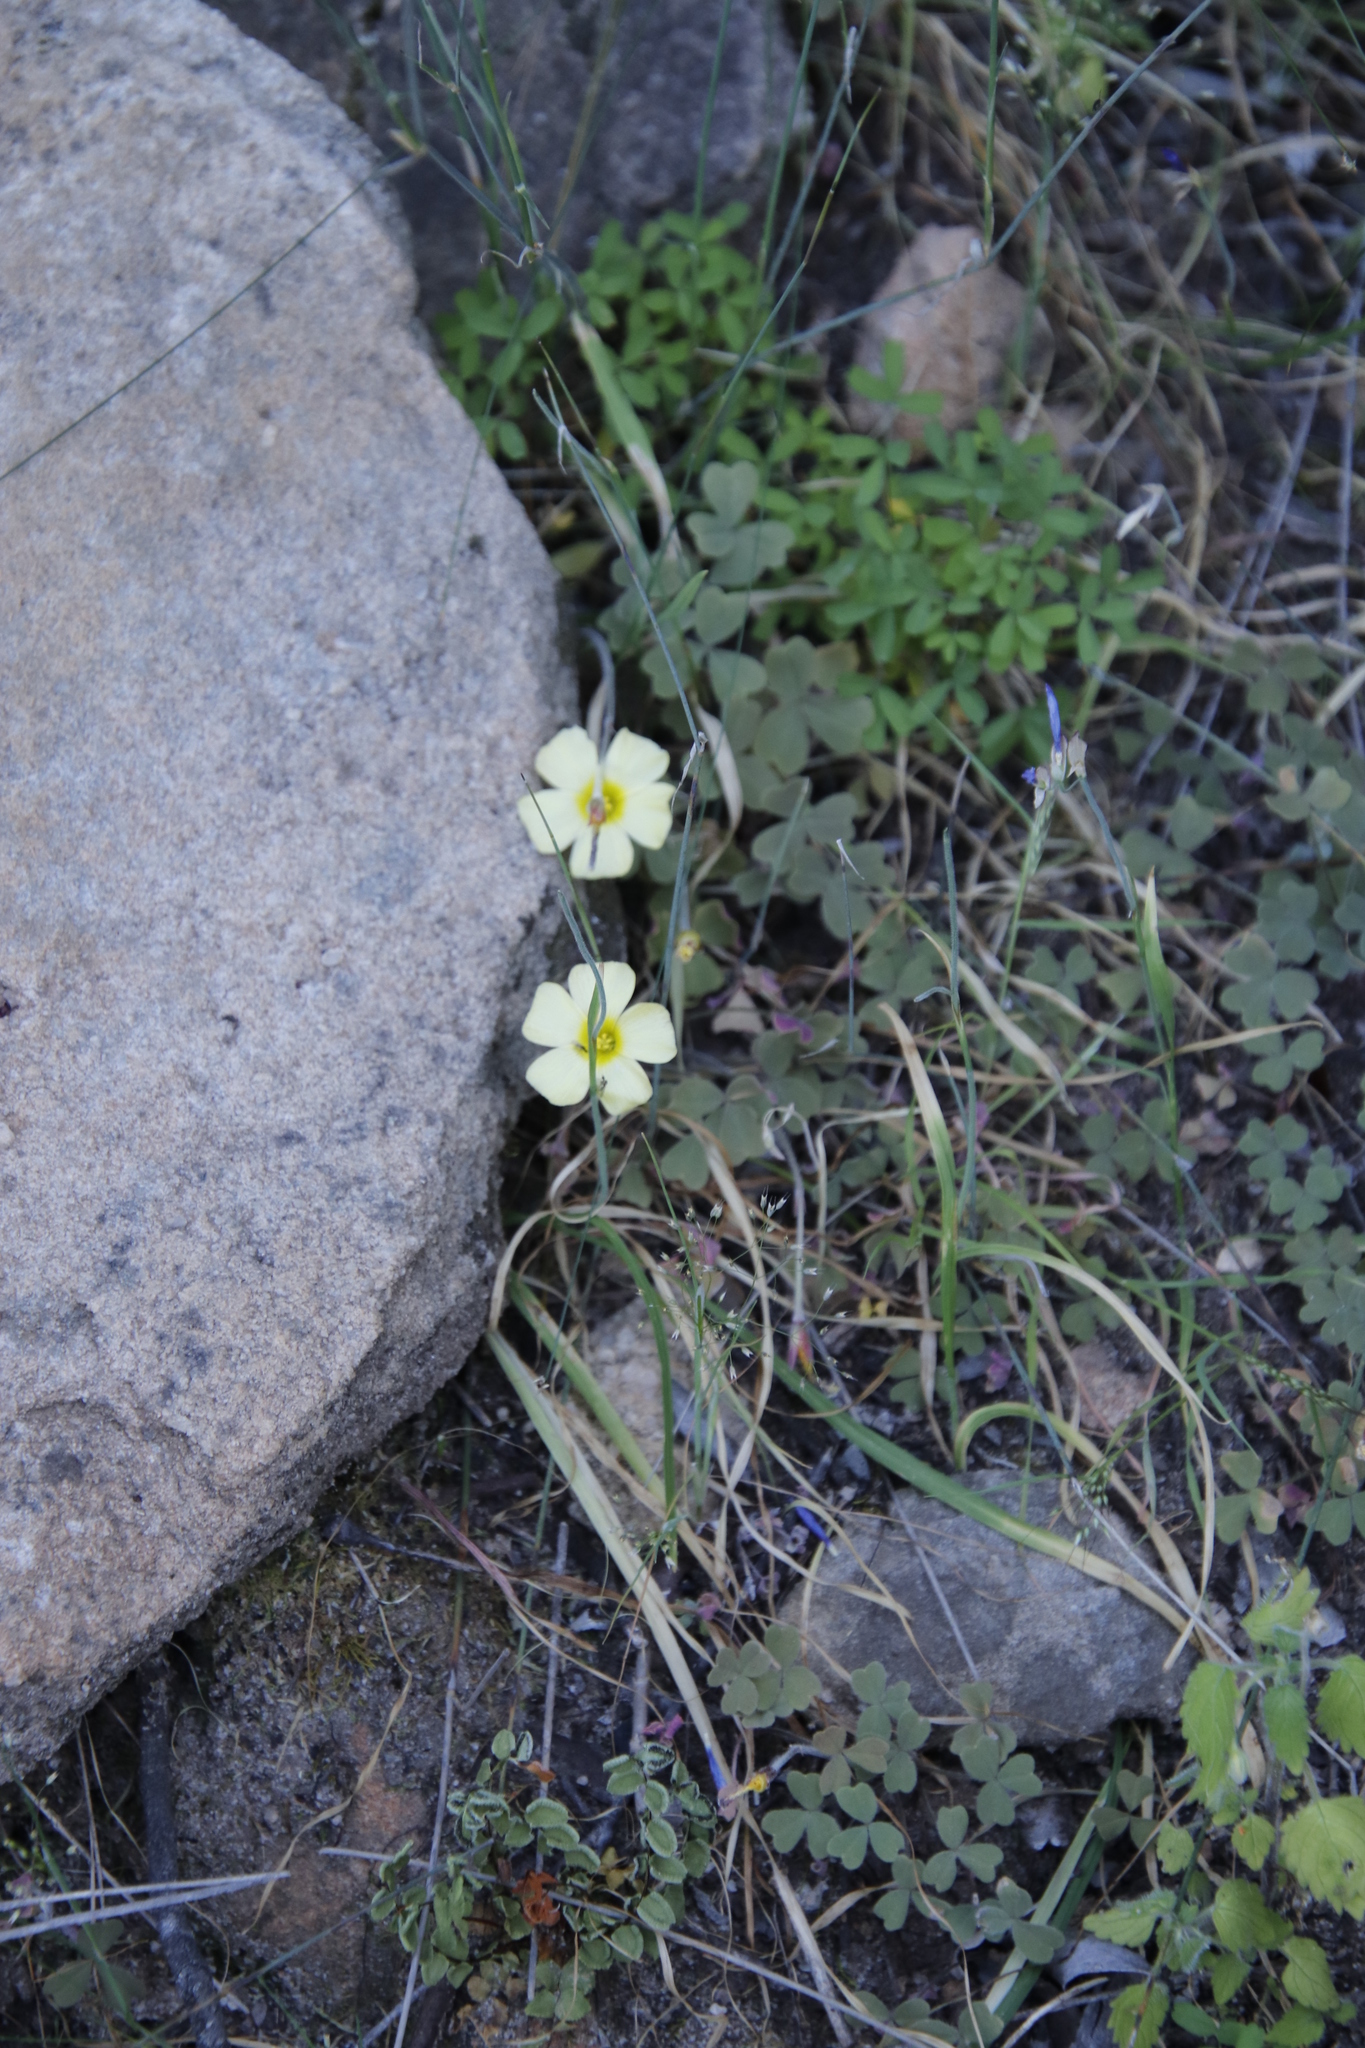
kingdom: Plantae
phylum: Tracheophyta
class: Magnoliopsida
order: Oxalidales
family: Oxalidaceae
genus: Oxalis
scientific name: Oxalis obtusa
